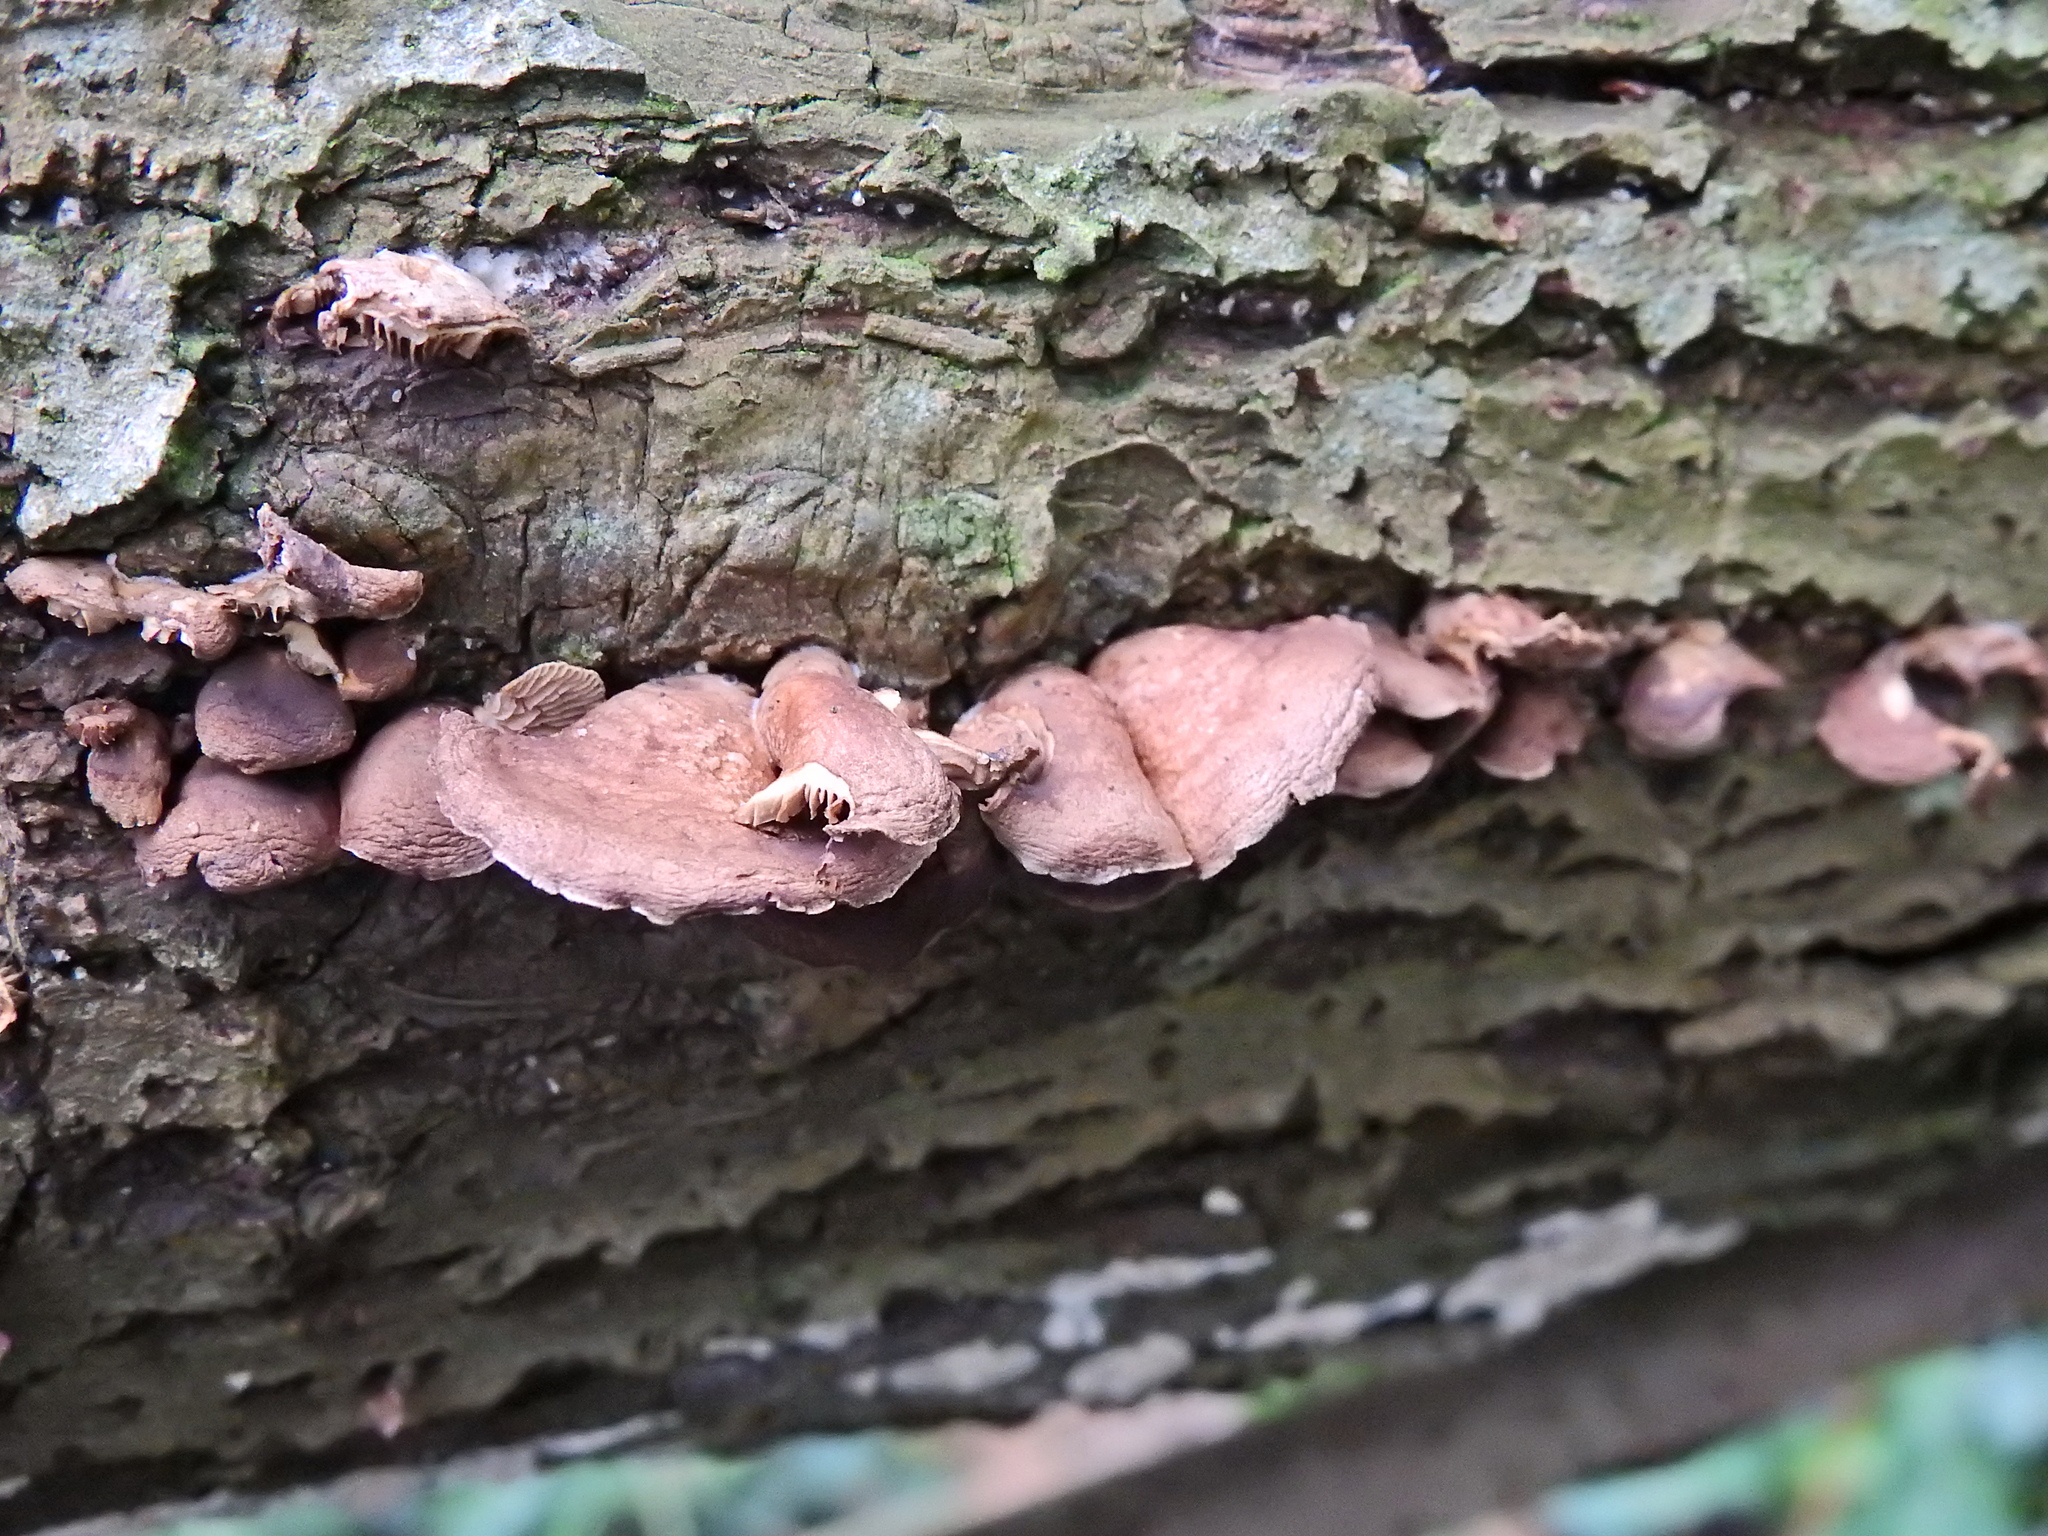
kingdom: Fungi
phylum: Basidiomycota
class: Agaricomycetes
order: Agaricales
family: Cyphellaceae
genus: Chondrostereum
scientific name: Chondrostereum purpureum
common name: Silver leaf disease
